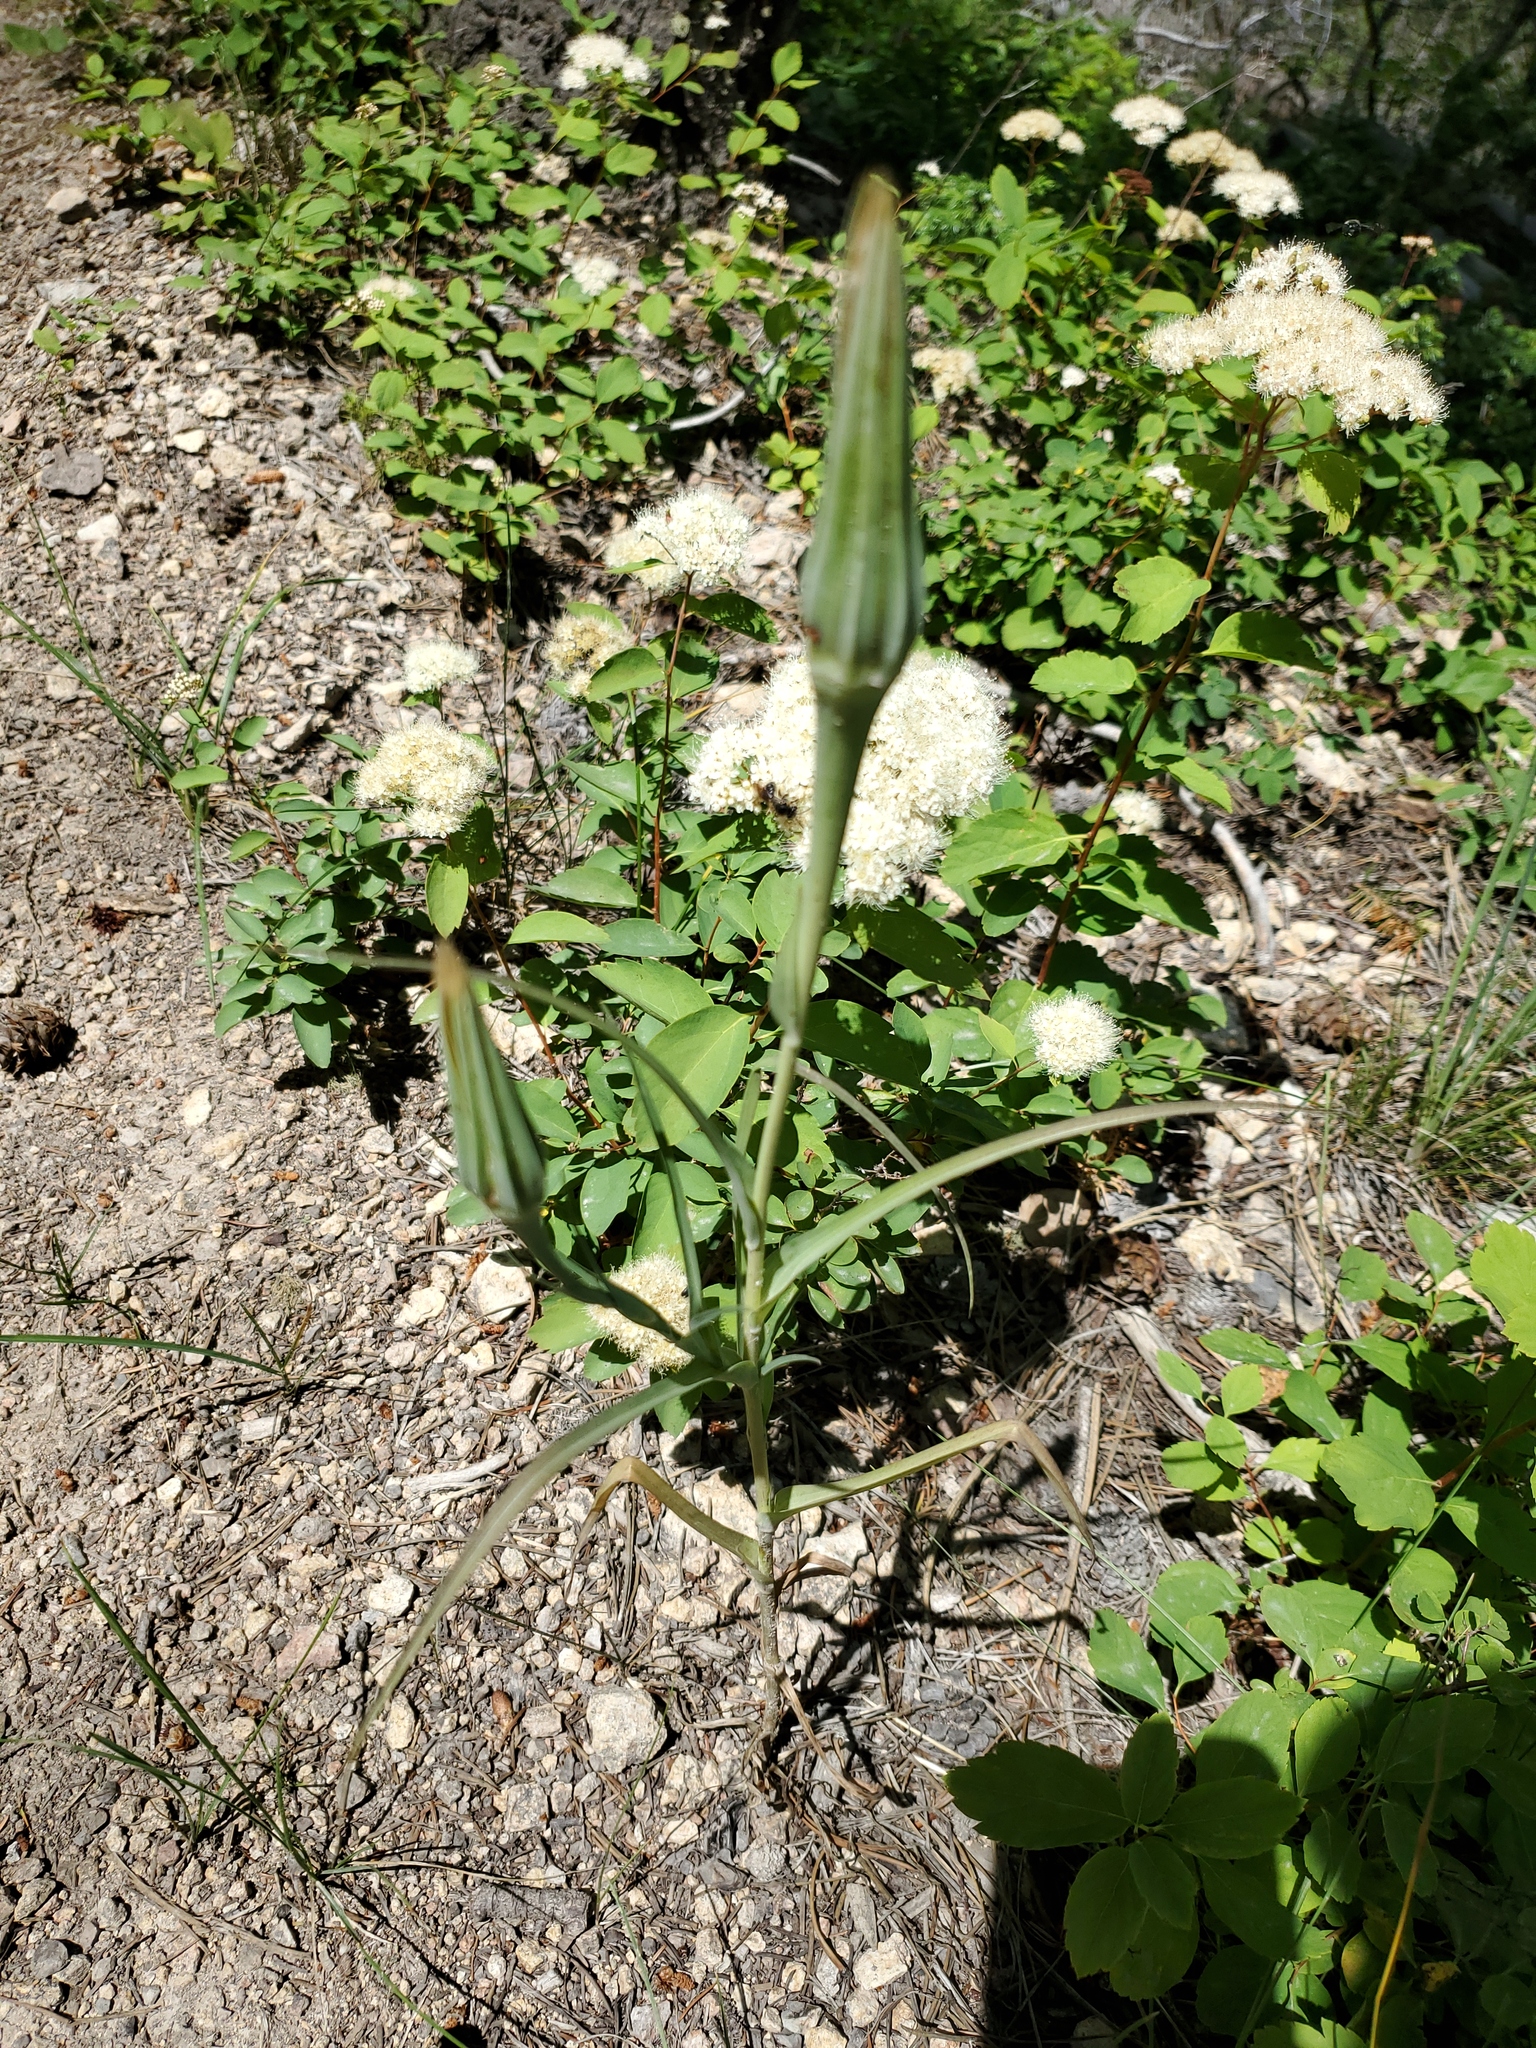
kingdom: Plantae
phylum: Tracheophyta
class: Magnoliopsida
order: Asterales
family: Asteraceae
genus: Tragopogon
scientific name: Tragopogon dubius
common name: Yellow salsify
